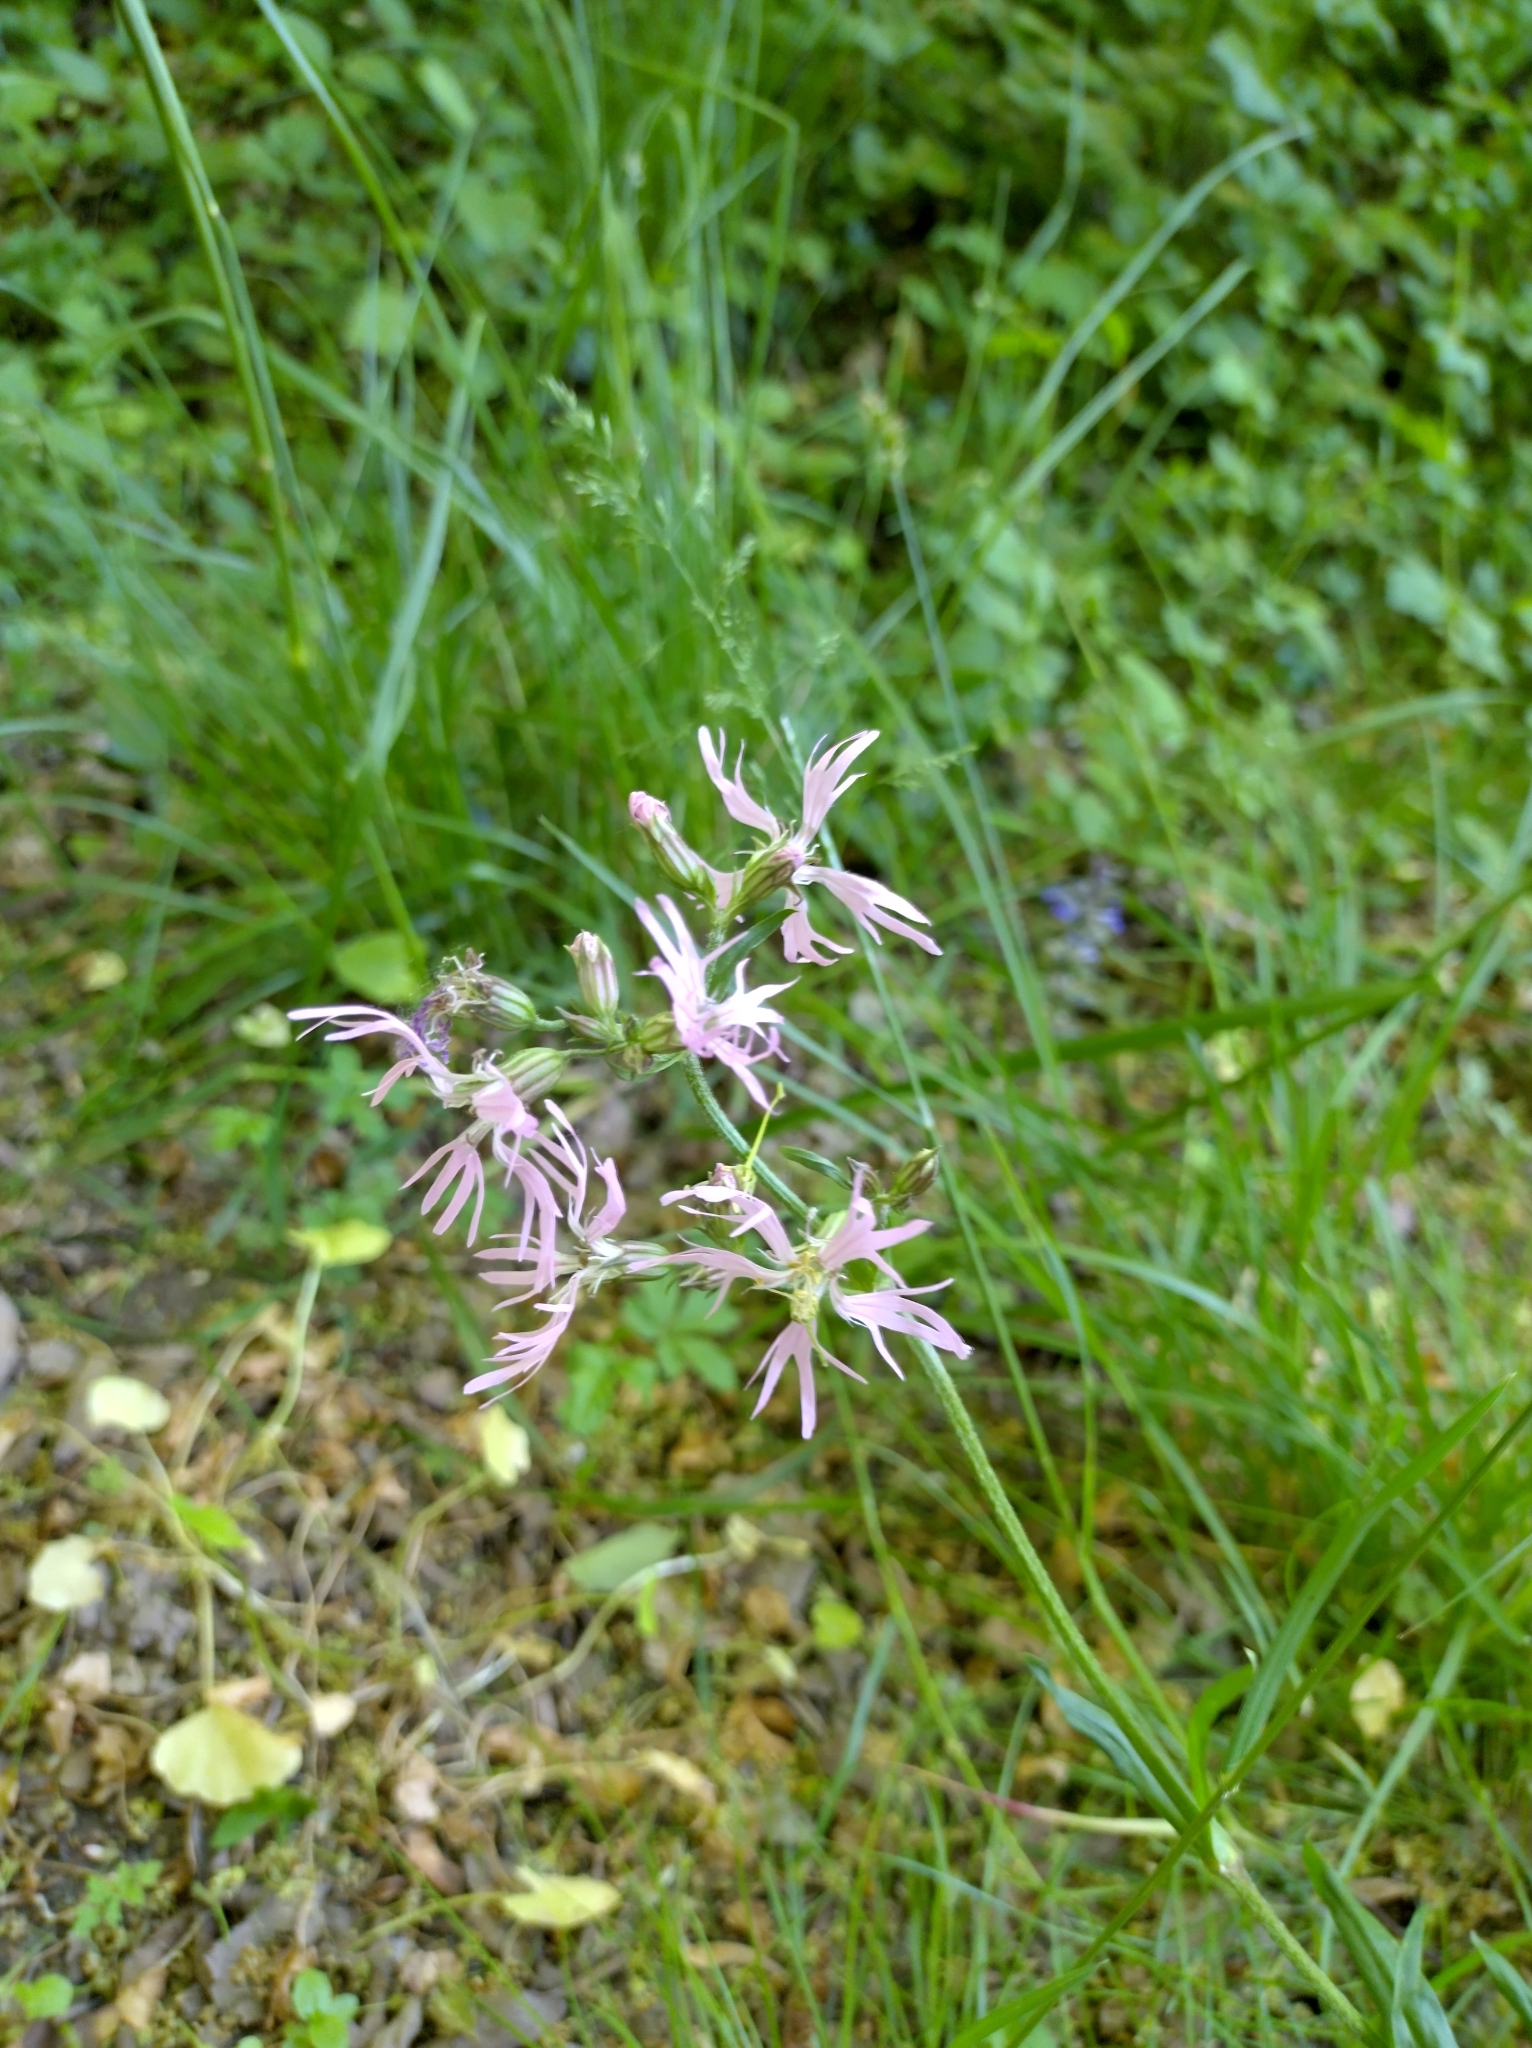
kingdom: Plantae
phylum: Tracheophyta
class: Magnoliopsida
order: Caryophyllales
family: Caryophyllaceae
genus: Silene
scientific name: Silene flos-cuculi
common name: Ragged-robin
